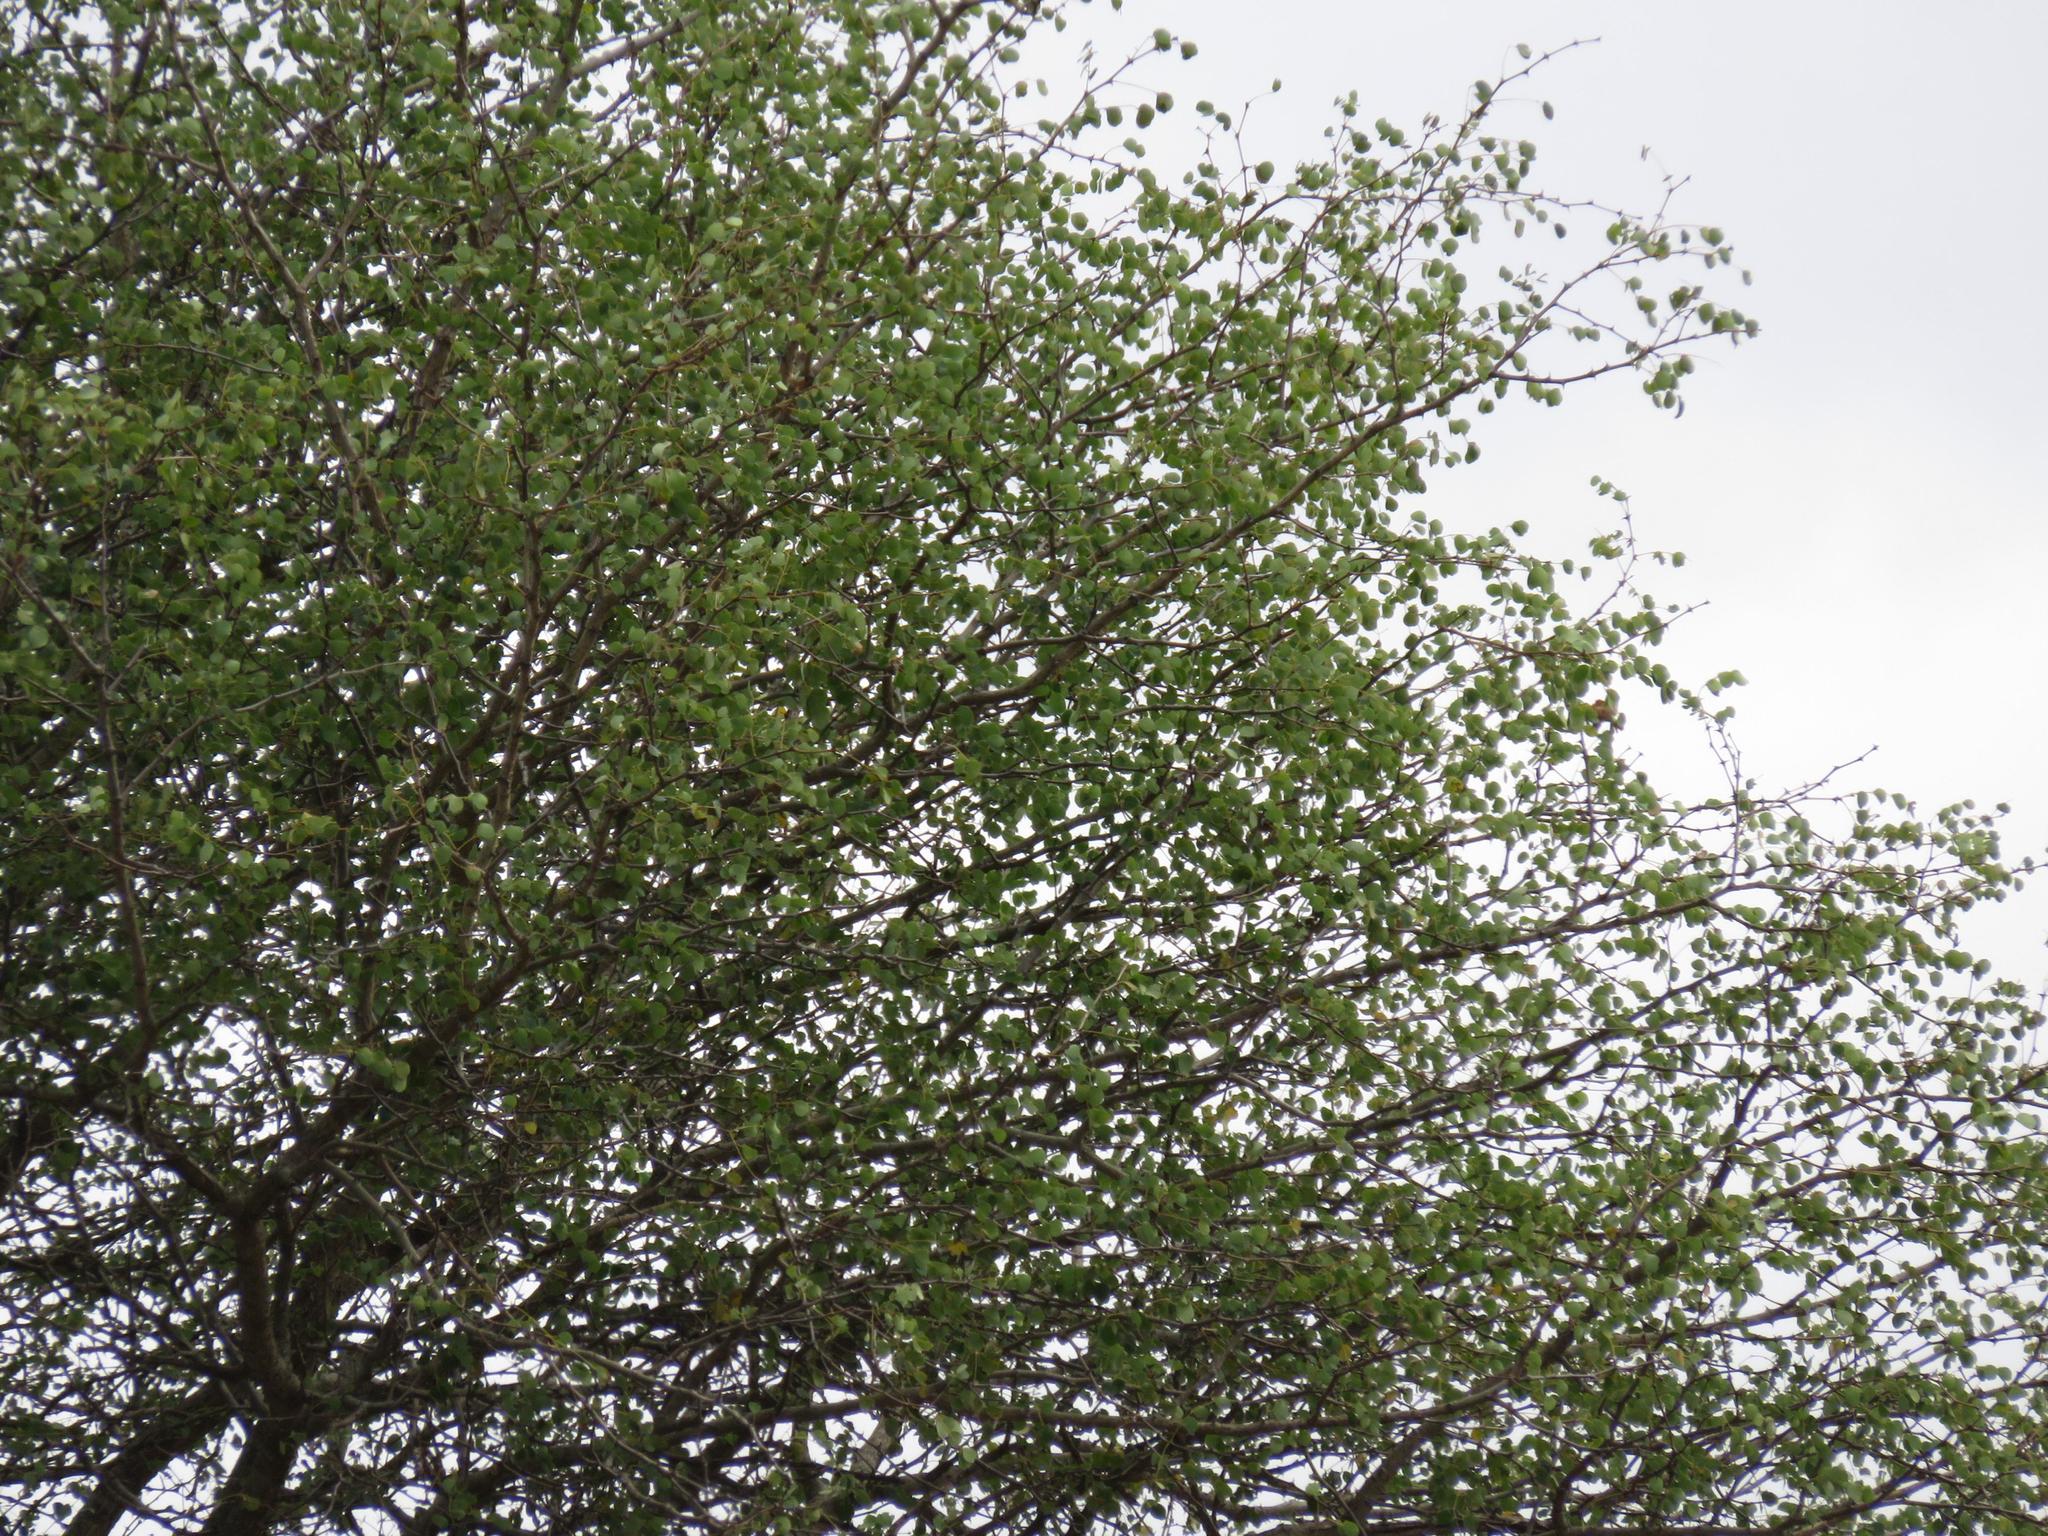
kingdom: Plantae
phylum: Tracheophyta
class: Magnoliopsida
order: Fabales
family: Fabaceae
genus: Senegalia
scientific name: Senegalia nigrescens
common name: Knobthorn
